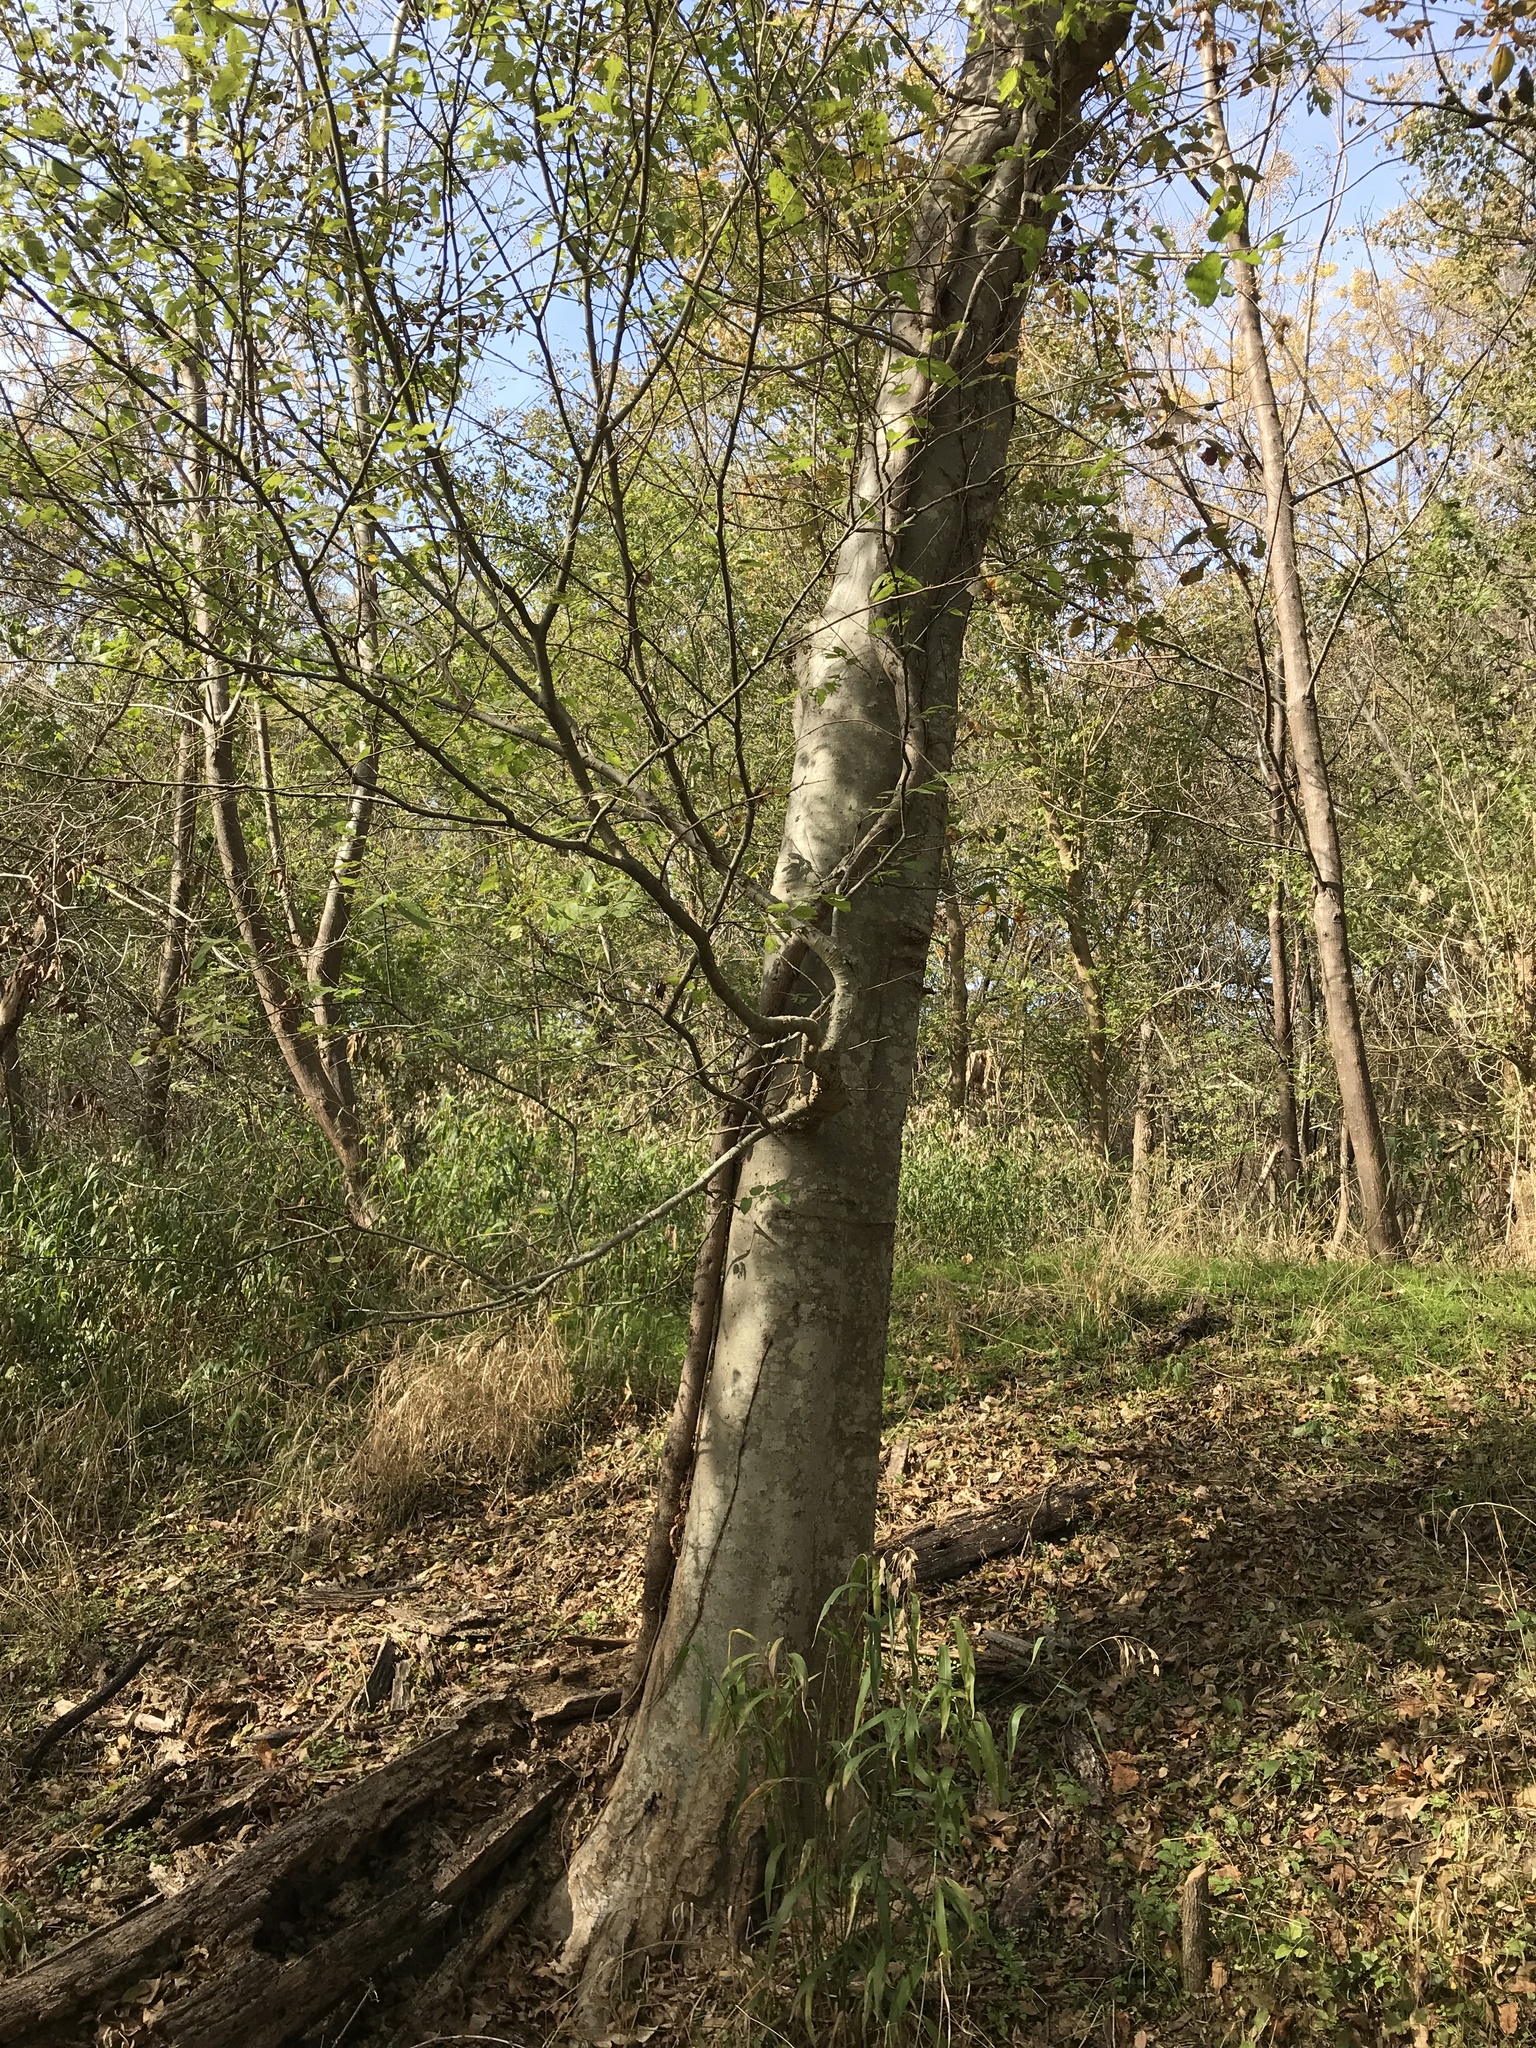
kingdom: Plantae
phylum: Tracheophyta
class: Magnoliopsida
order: Rosales
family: Cannabaceae
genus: Celtis
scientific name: Celtis laevigata
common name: Sugarberry
